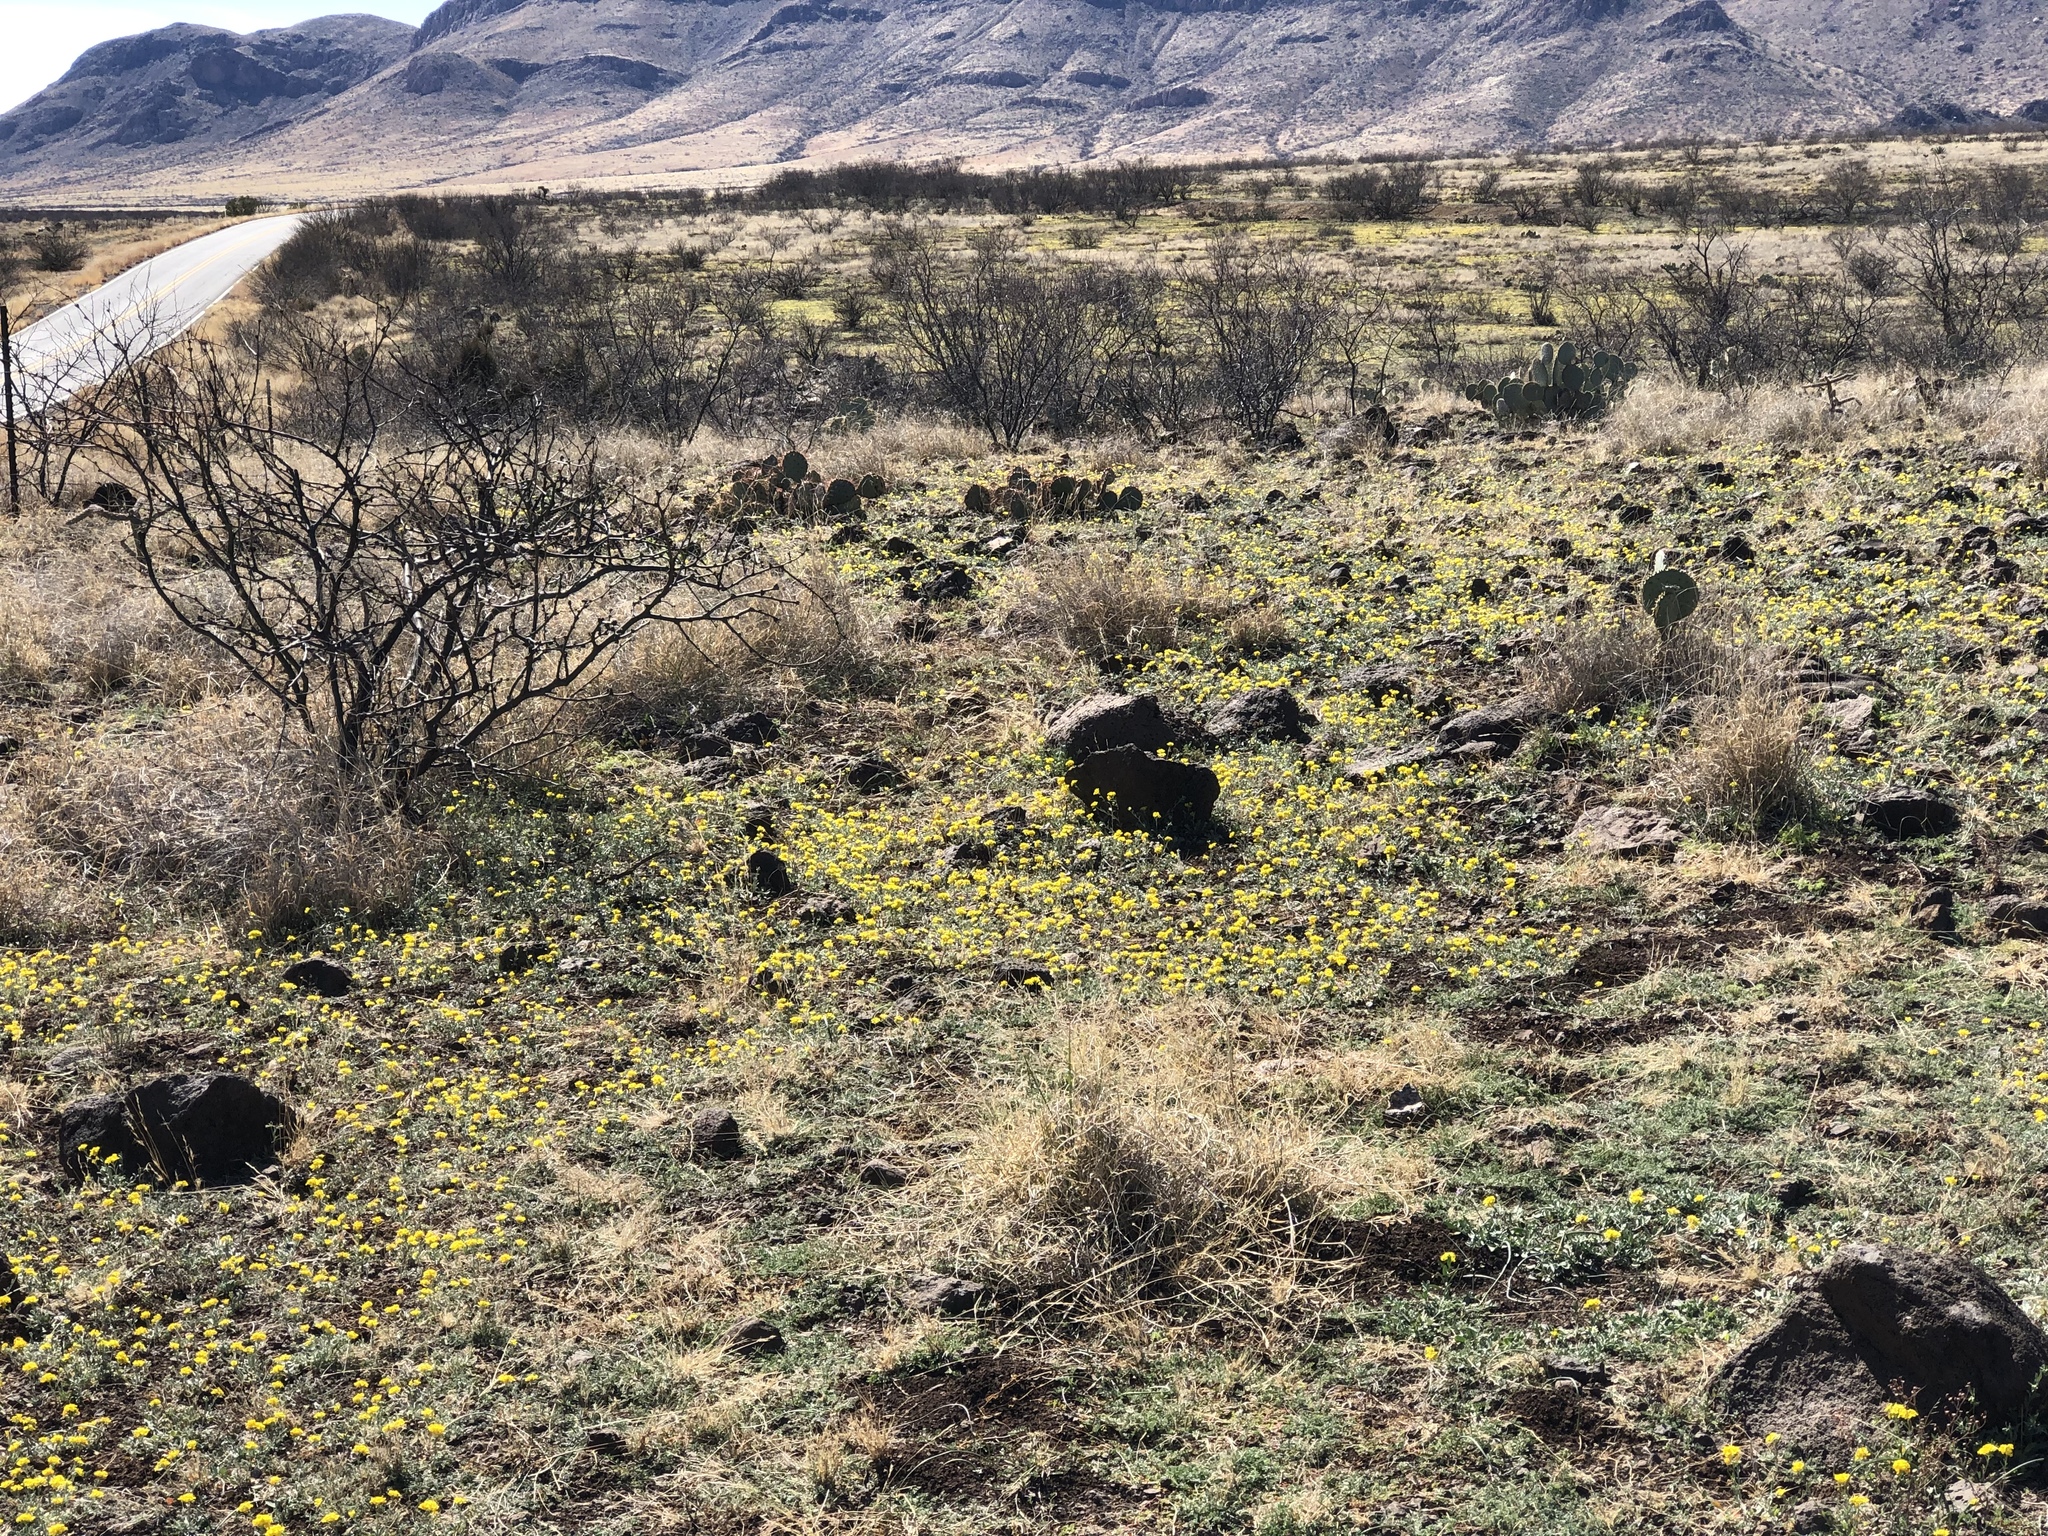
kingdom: Plantae
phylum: Tracheophyta
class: Magnoliopsida
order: Brassicales
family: Brassicaceae
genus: Physaria
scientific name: Physaria gordonii
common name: Gordon's bladderpod
